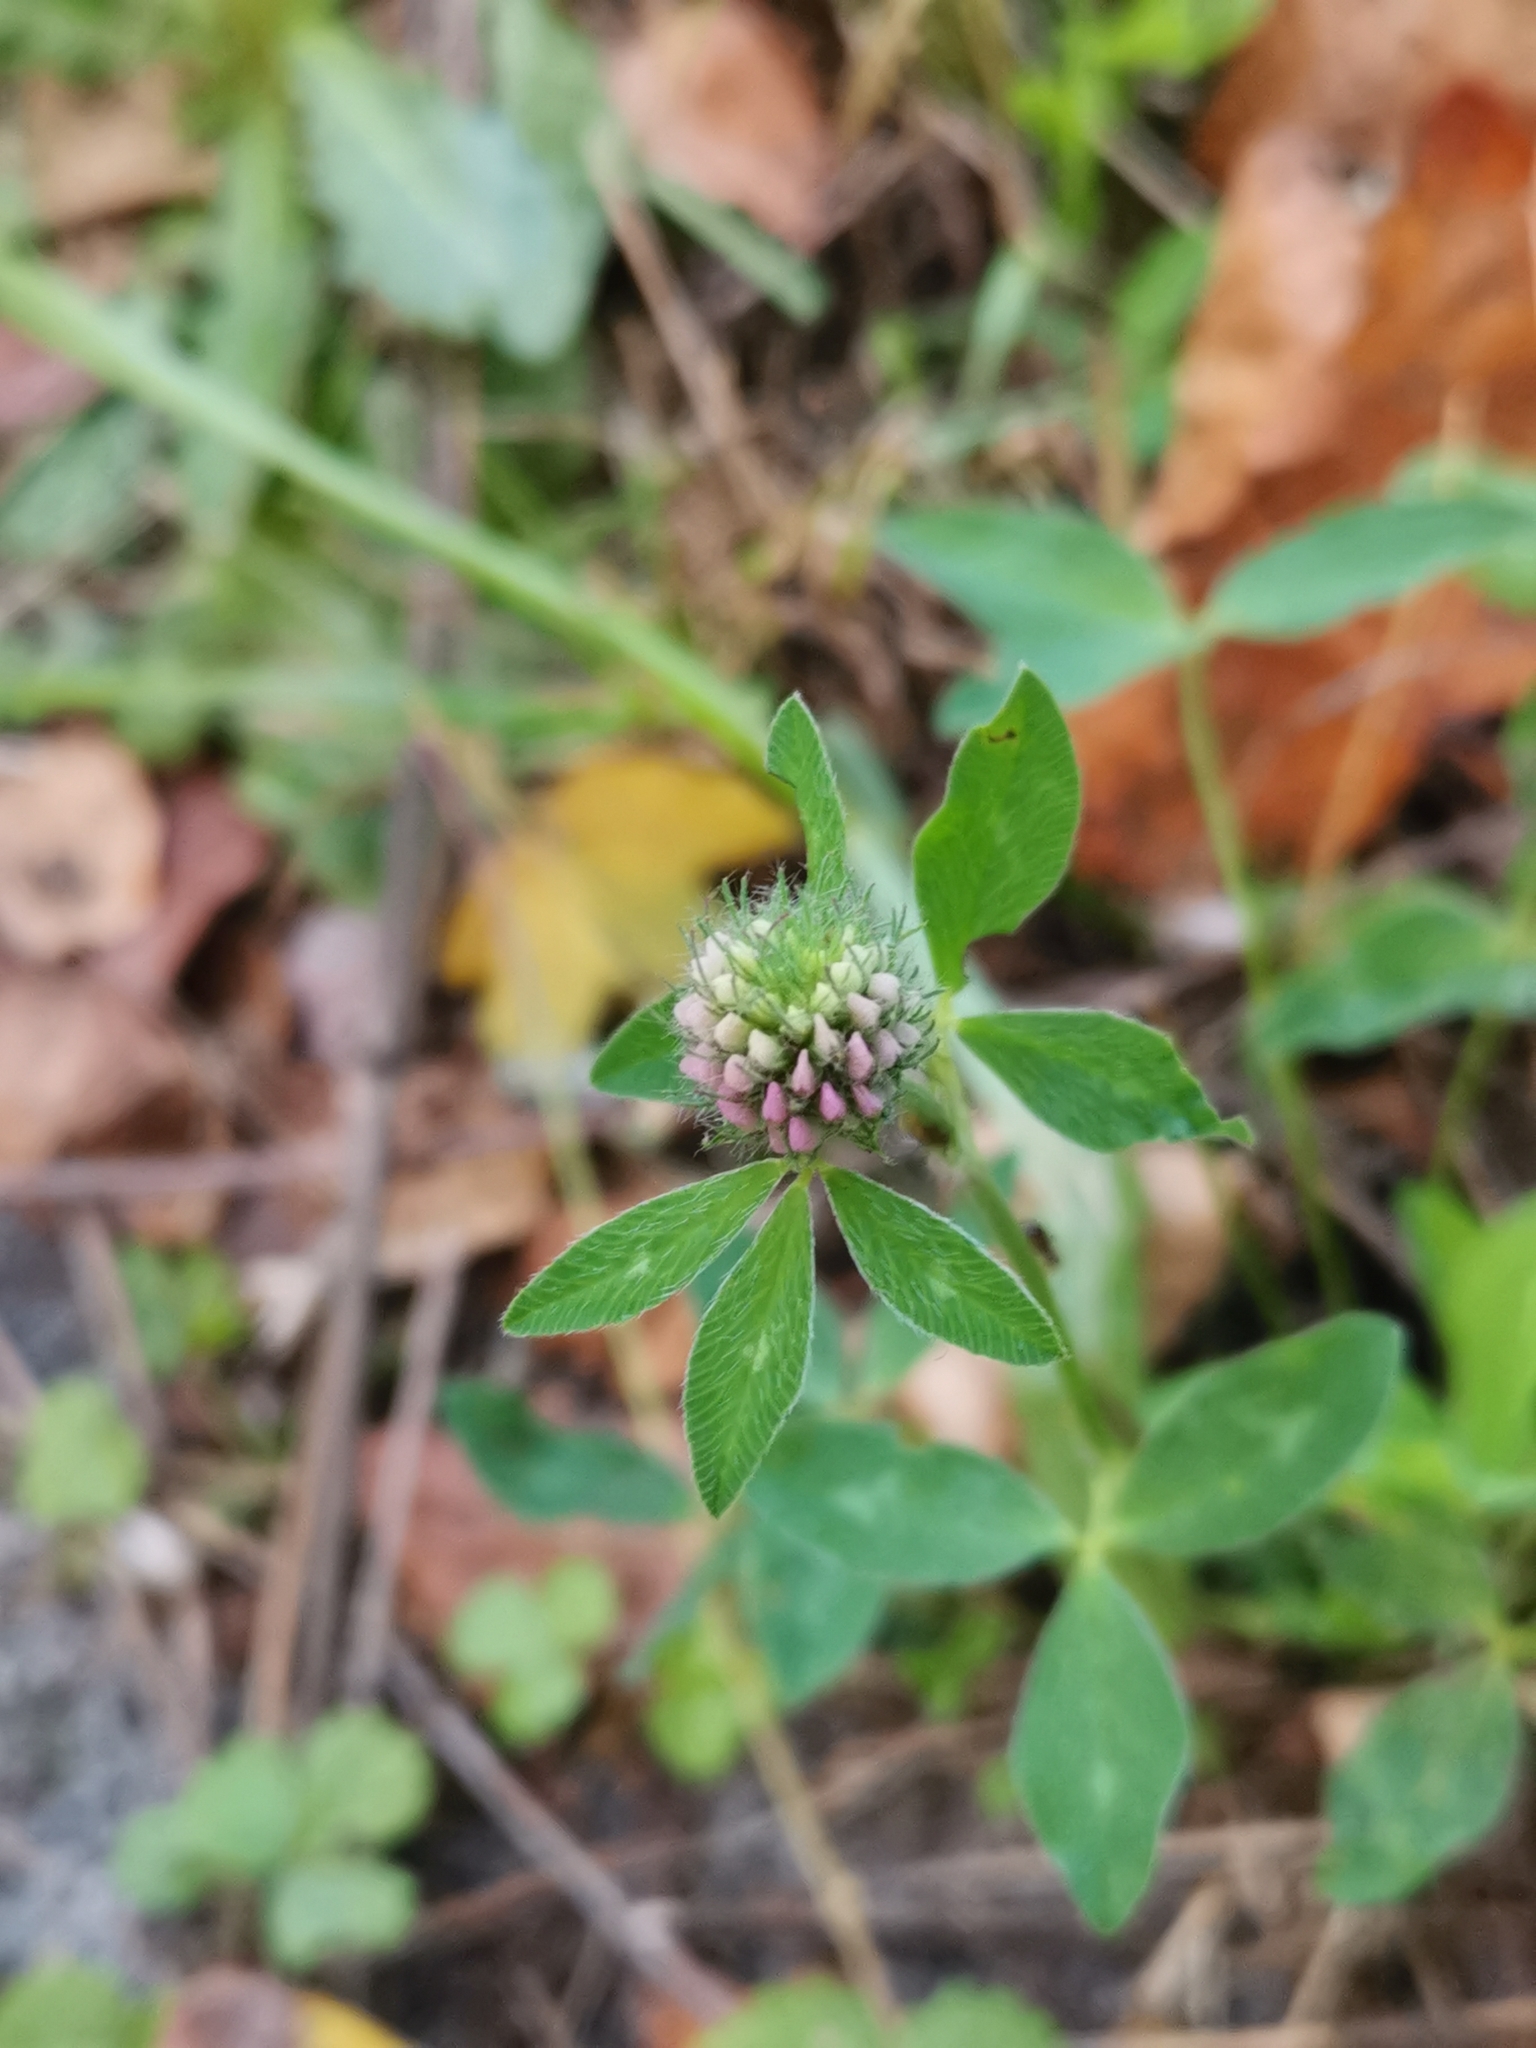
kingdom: Plantae
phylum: Tracheophyta
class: Magnoliopsida
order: Fabales
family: Fabaceae
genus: Trifolium
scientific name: Trifolium pratense
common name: Red clover
